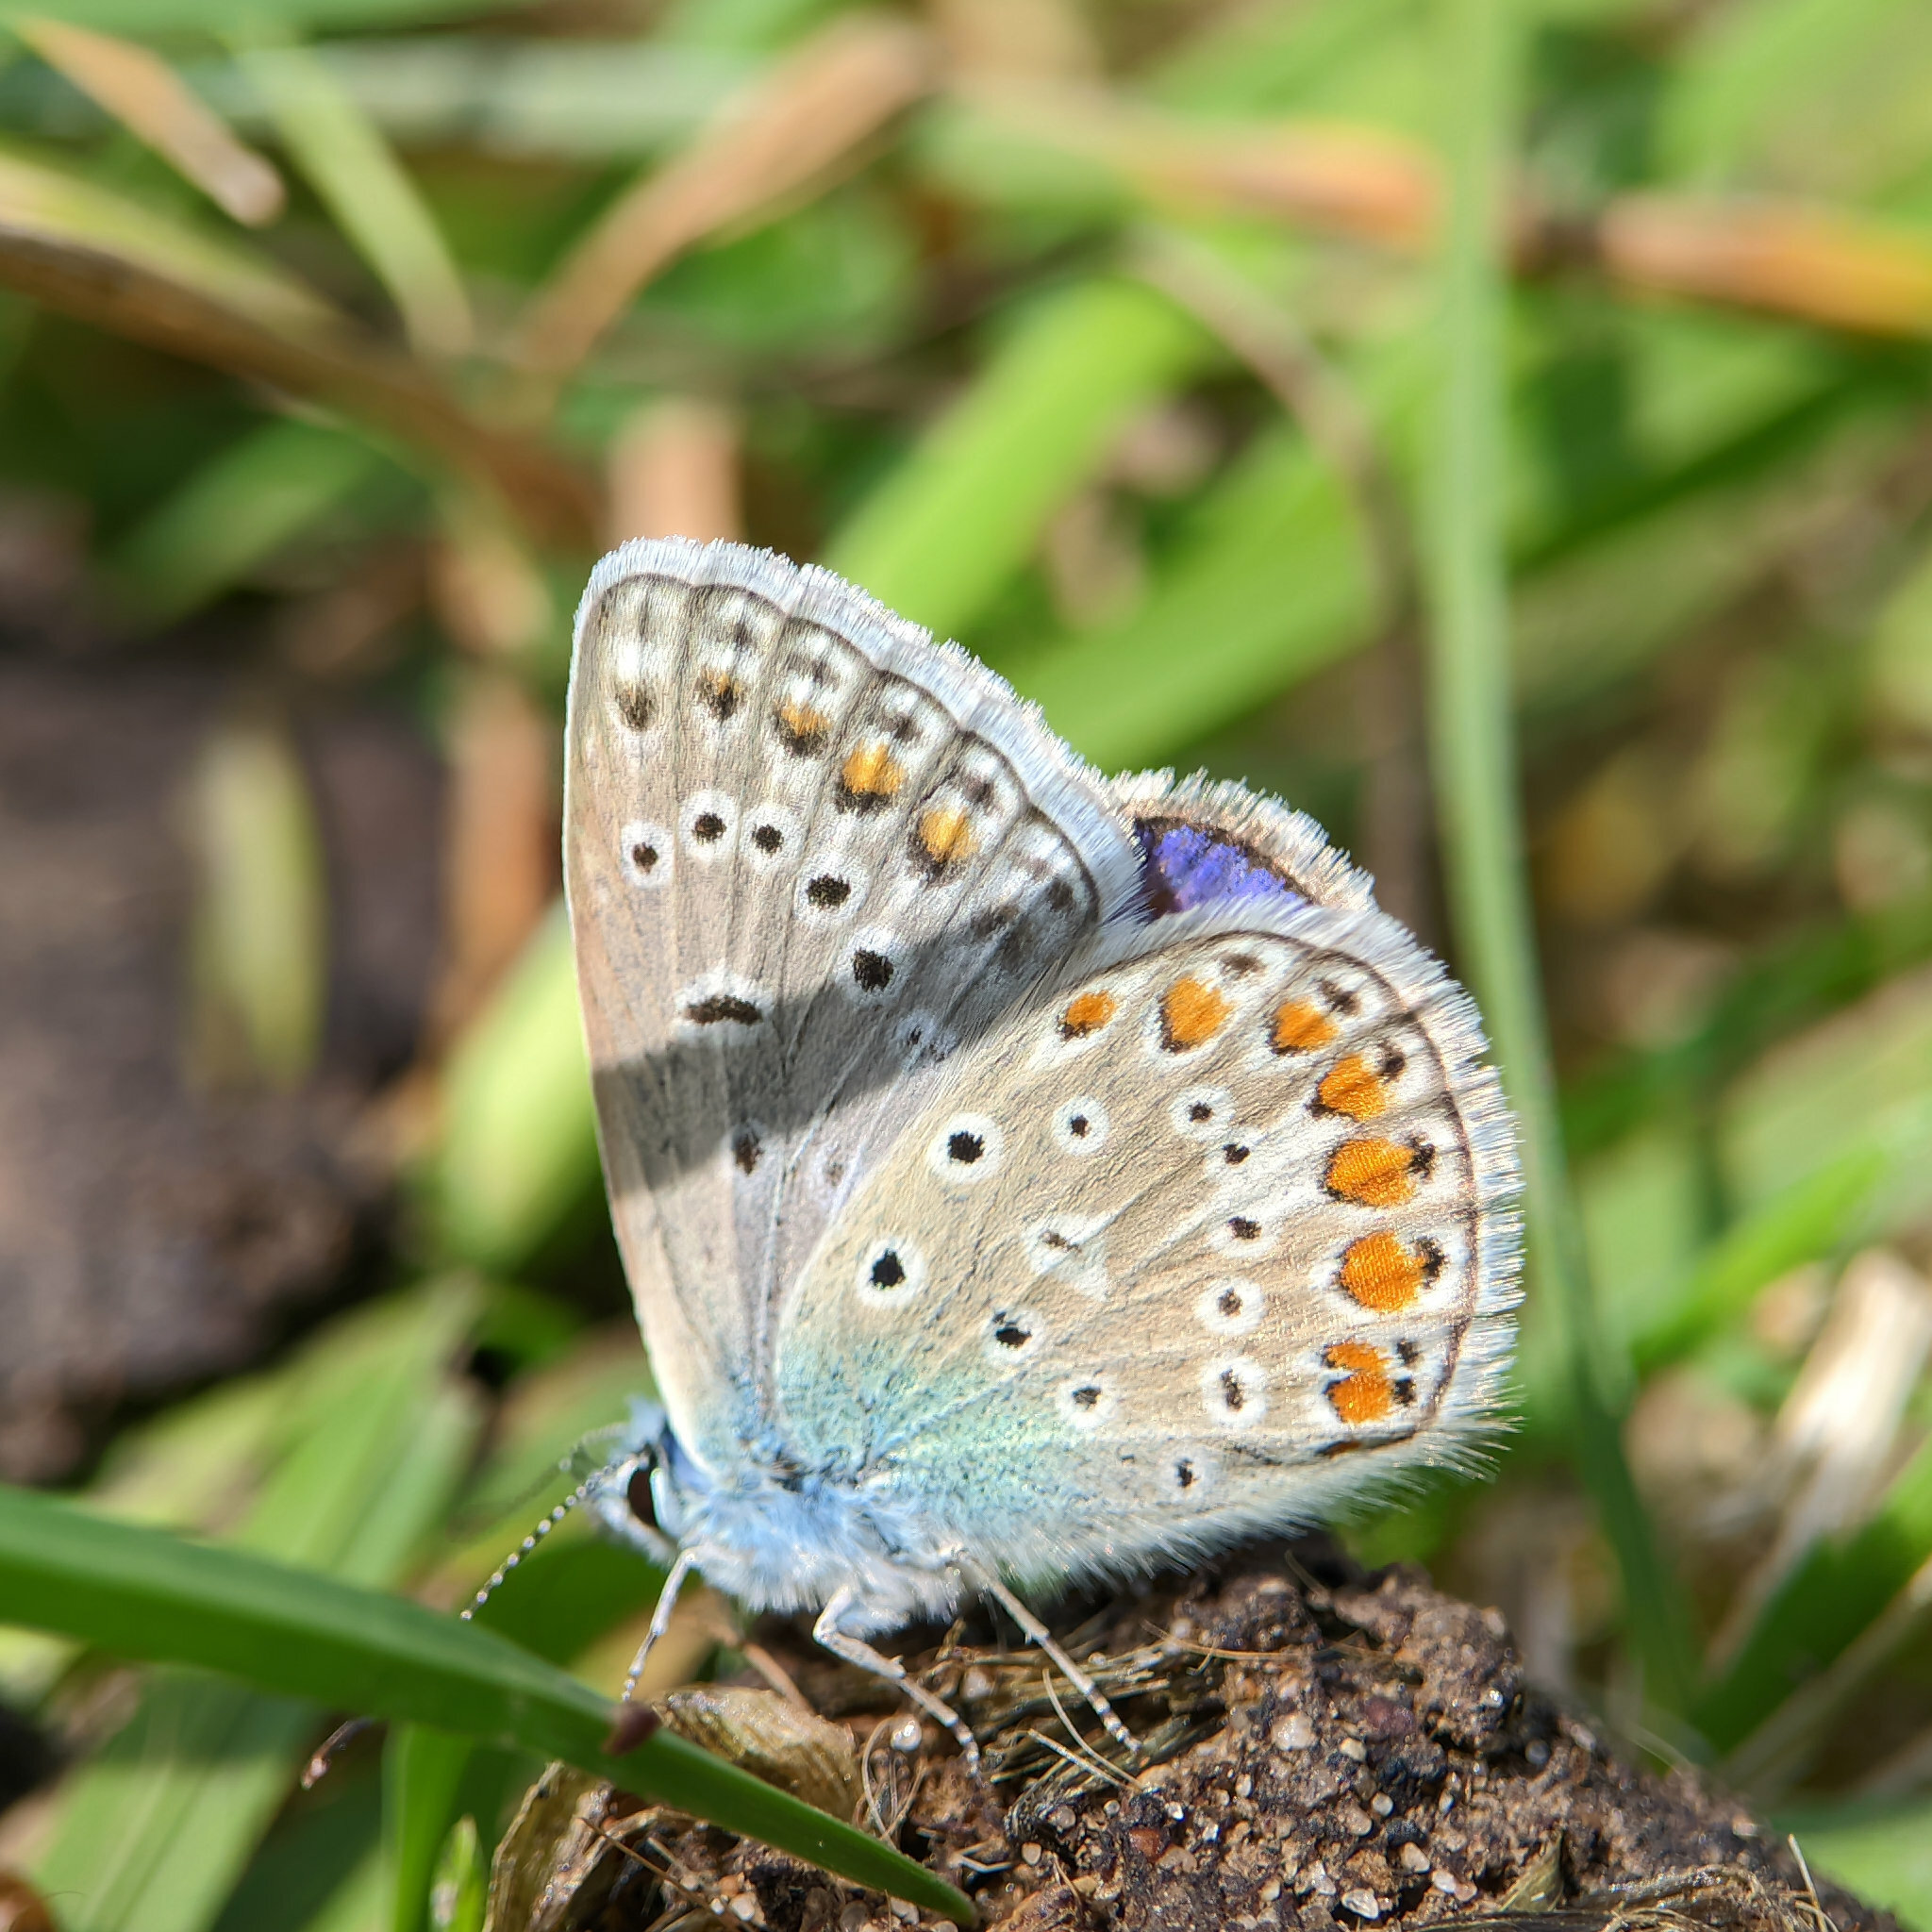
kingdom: Animalia
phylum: Arthropoda
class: Insecta
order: Lepidoptera
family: Lycaenidae
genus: Polyommatus
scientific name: Polyommatus icarus
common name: Common blue
